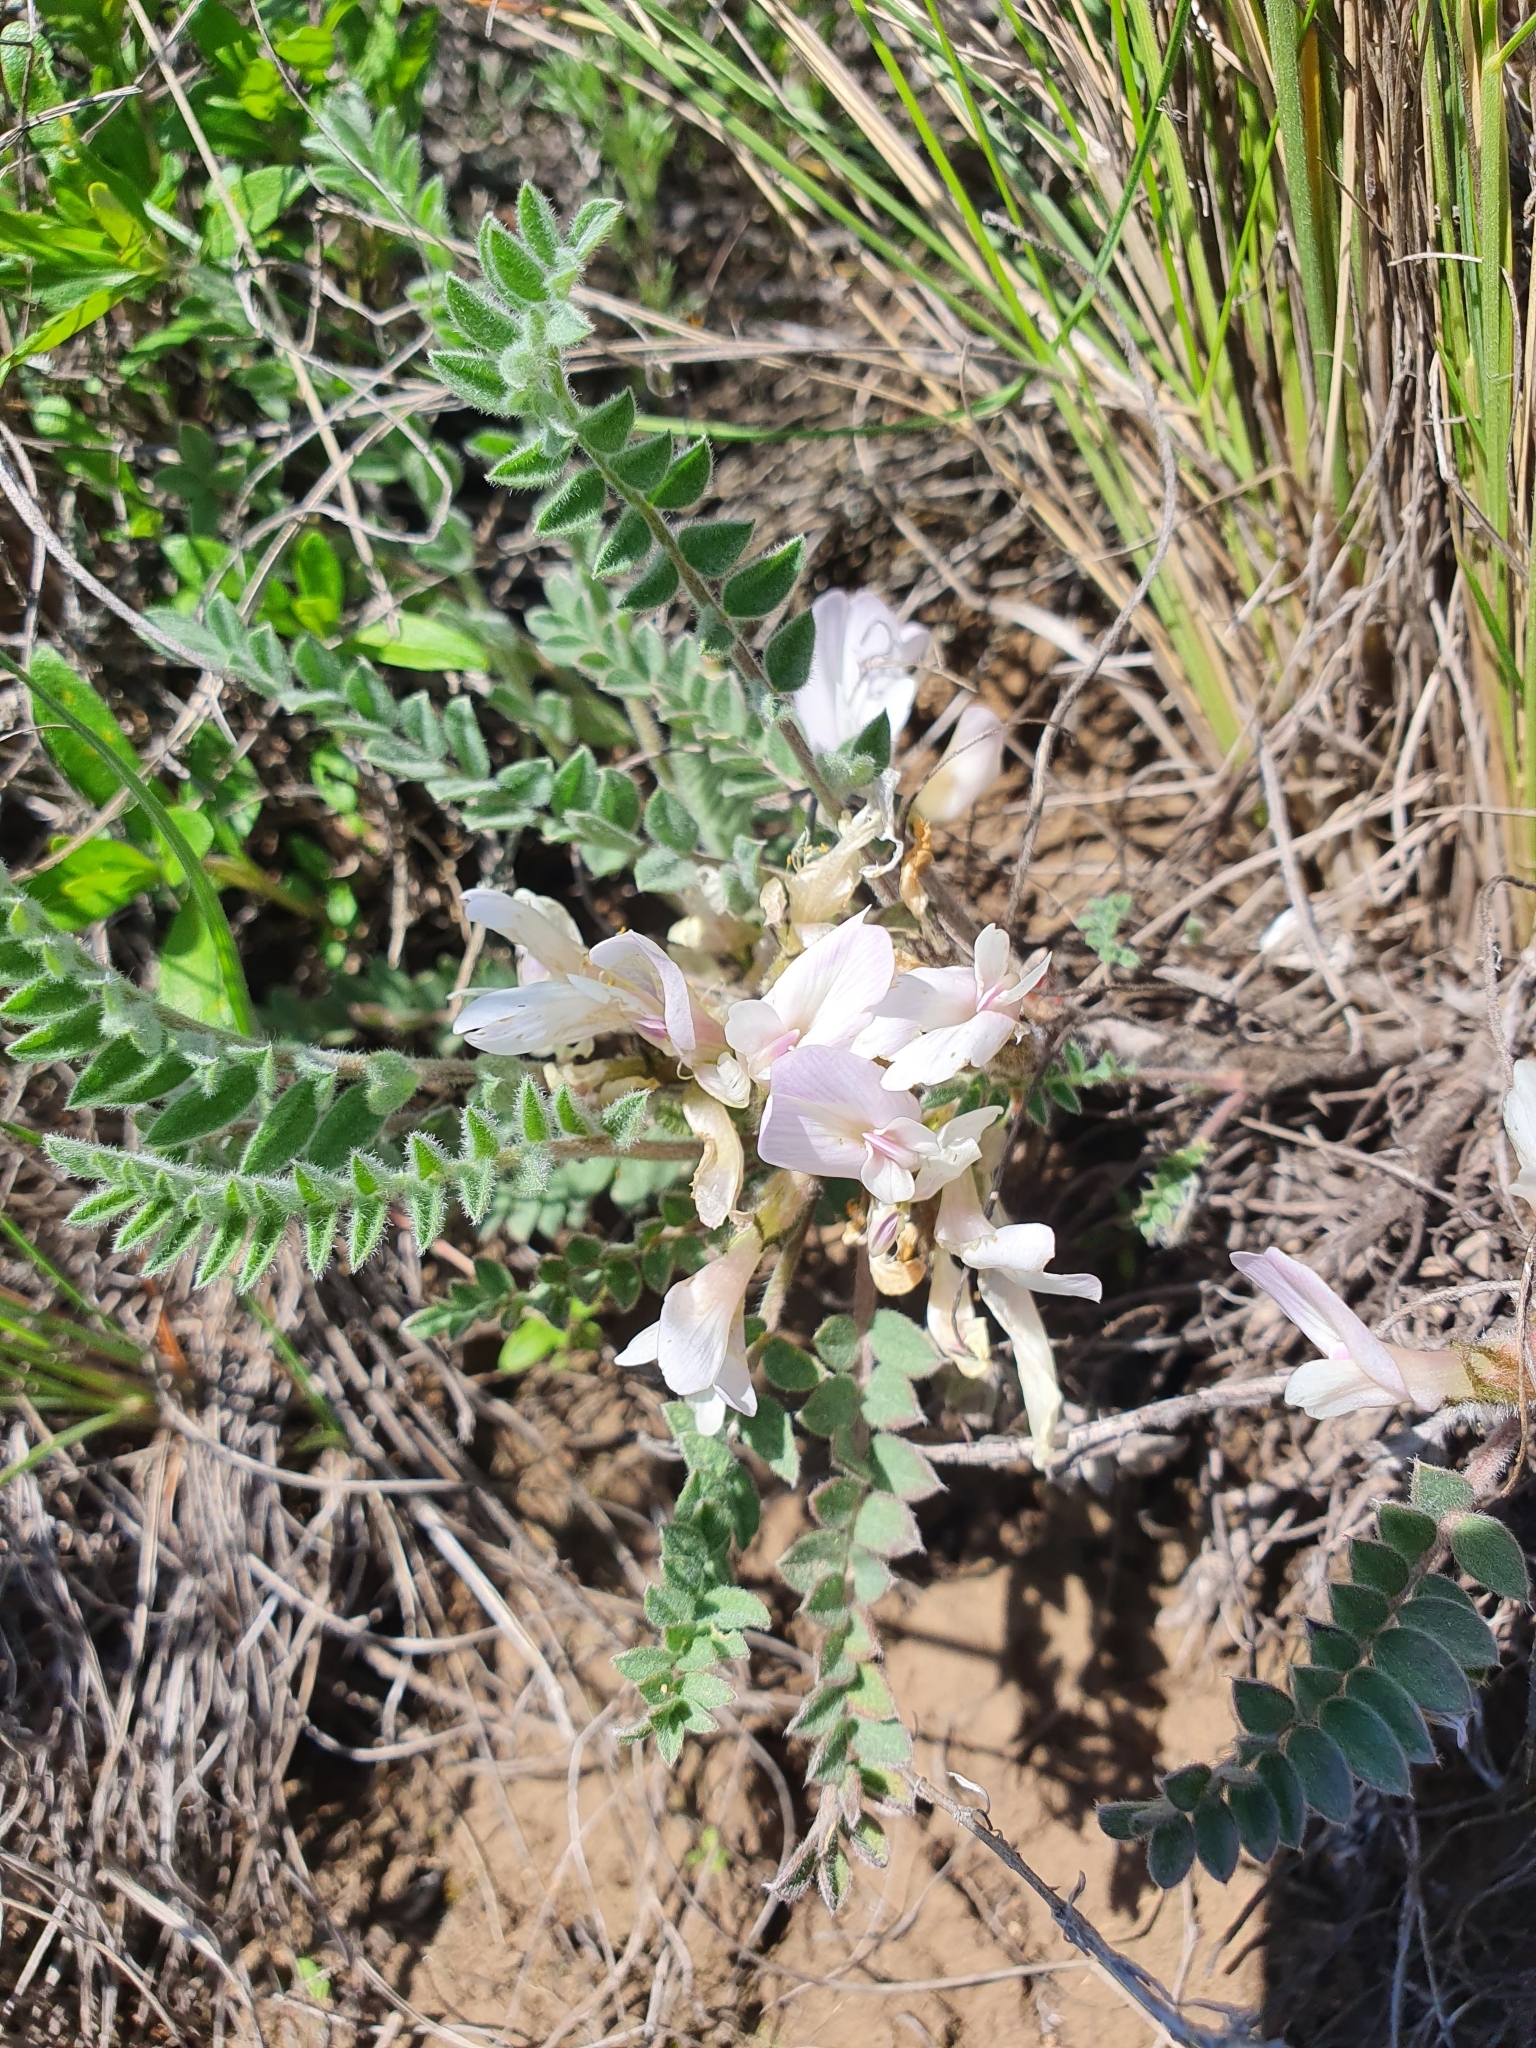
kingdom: Plantae
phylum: Tracheophyta
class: Magnoliopsida
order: Fabales
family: Fabaceae
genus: Astragalus
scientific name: Astragalus rupifragus
